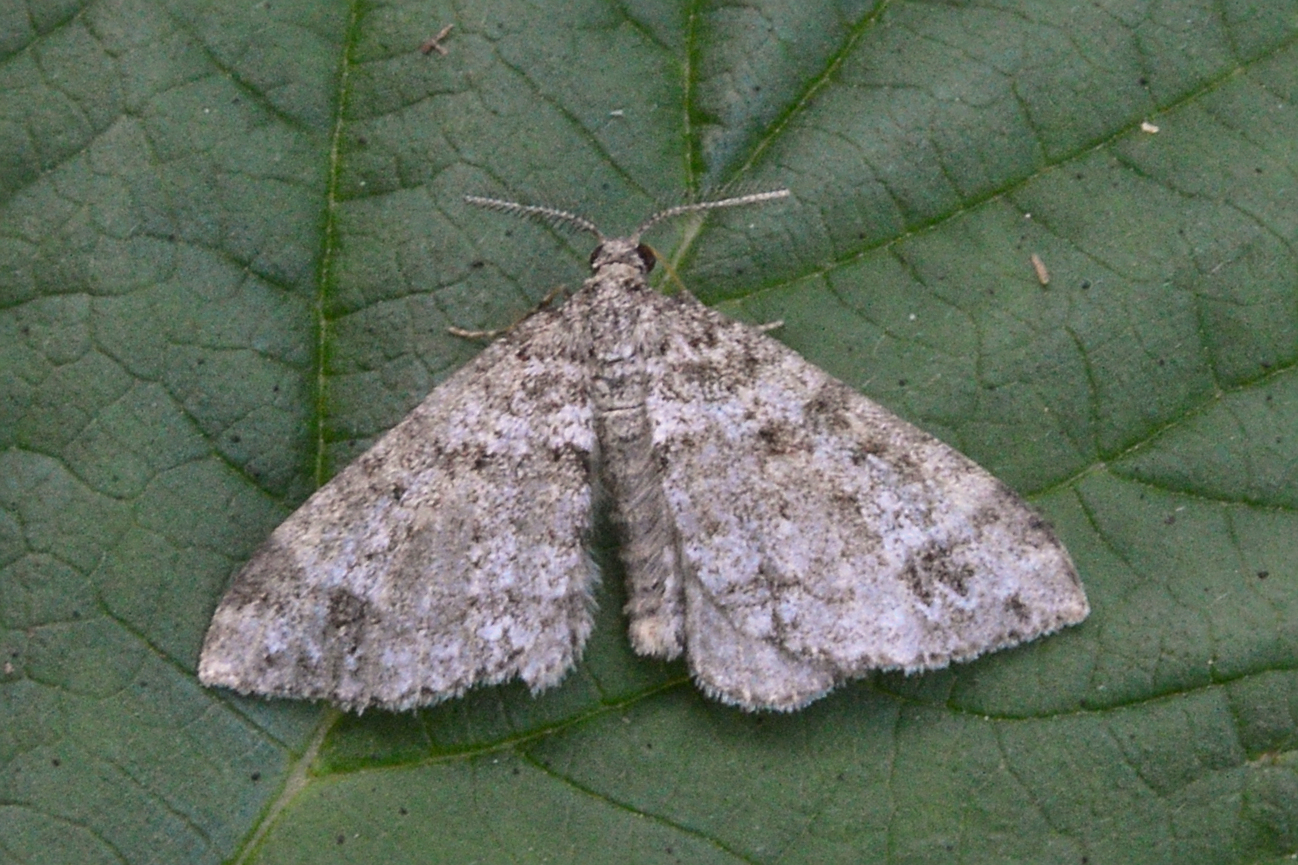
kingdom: Animalia
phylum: Arthropoda
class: Insecta
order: Lepidoptera
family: Geometridae
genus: Perizoma
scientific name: Perizoma didymata
